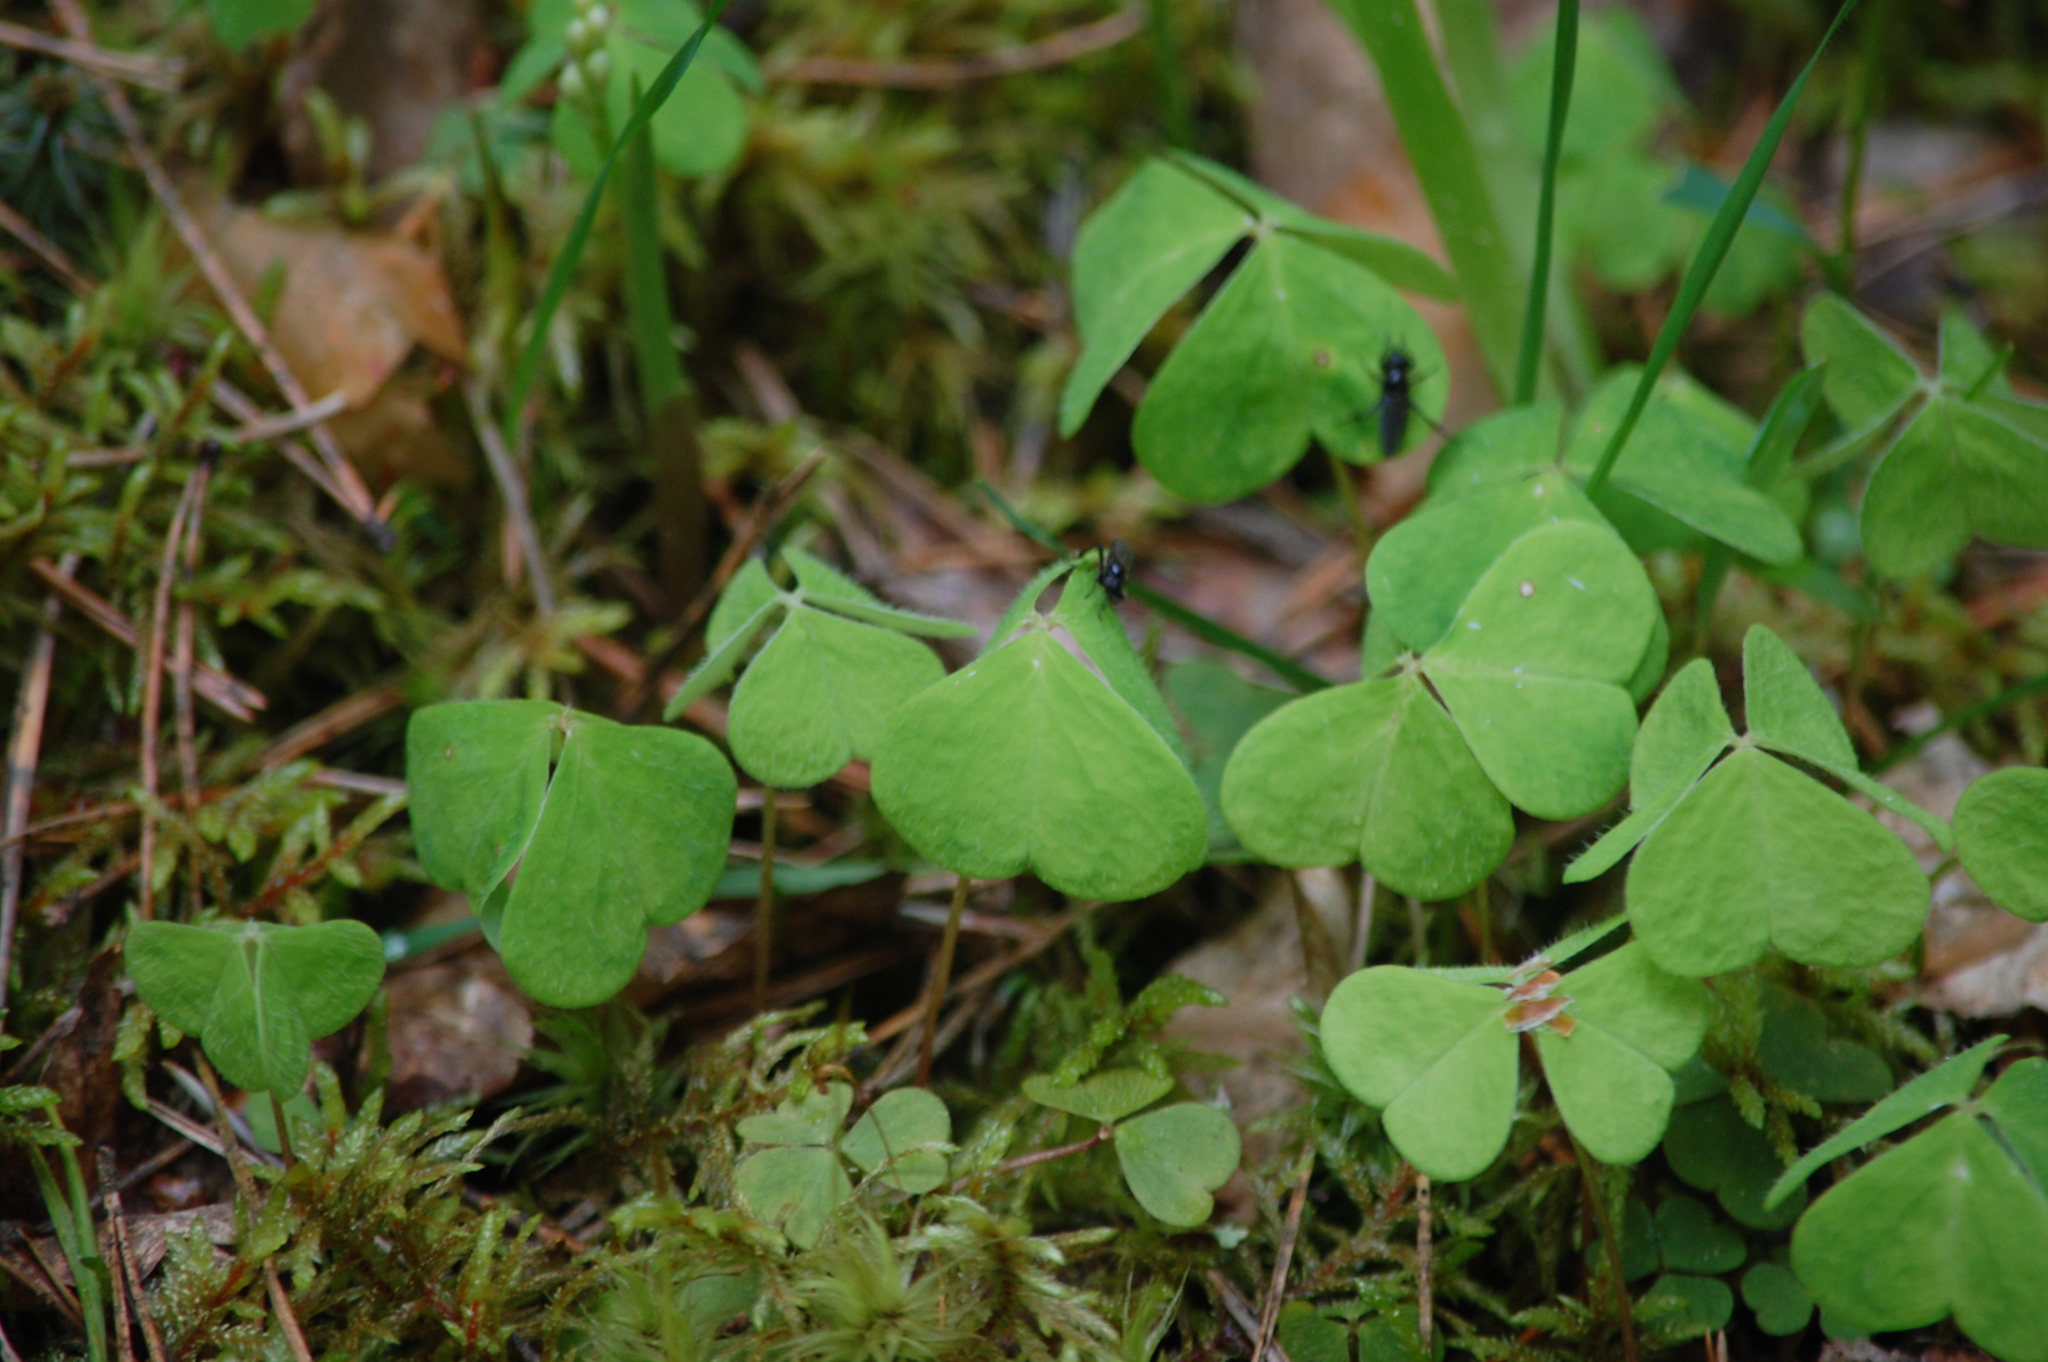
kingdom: Plantae
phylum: Tracheophyta
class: Magnoliopsida
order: Oxalidales
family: Oxalidaceae
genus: Oxalis
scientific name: Oxalis acetosella
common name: Wood-sorrel
